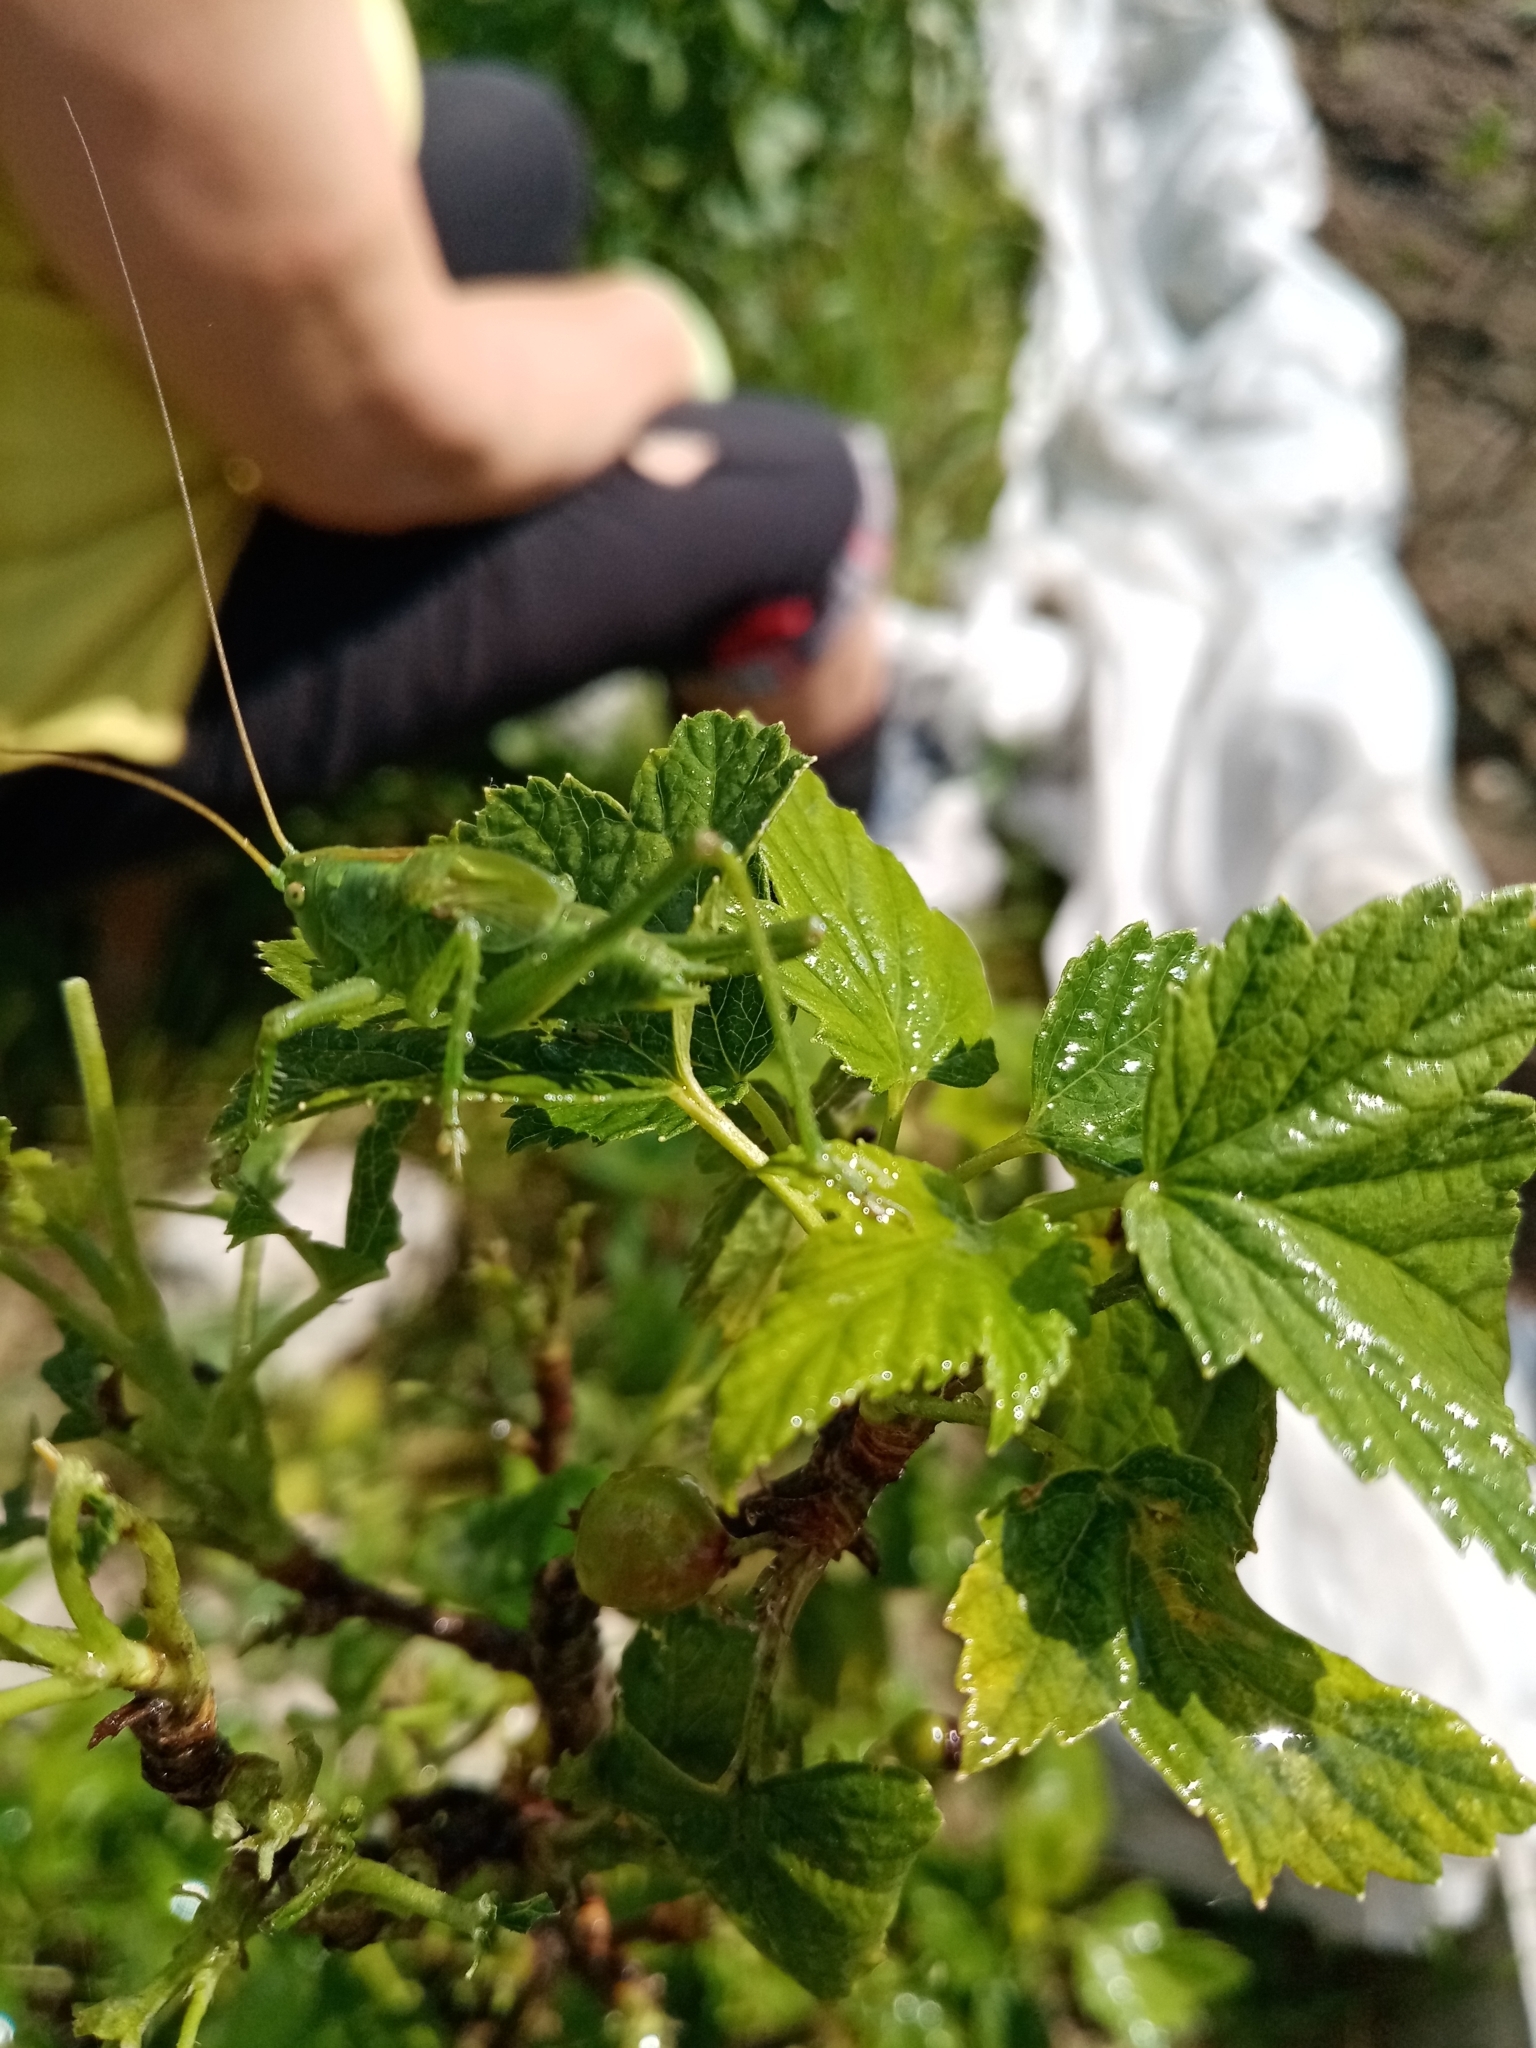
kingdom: Animalia
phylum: Arthropoda
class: Insecta
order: Orthoptera
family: Tettigoniidae
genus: Tettigonia
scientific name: Tettigonia cantans
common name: Upland green bush-cricket
